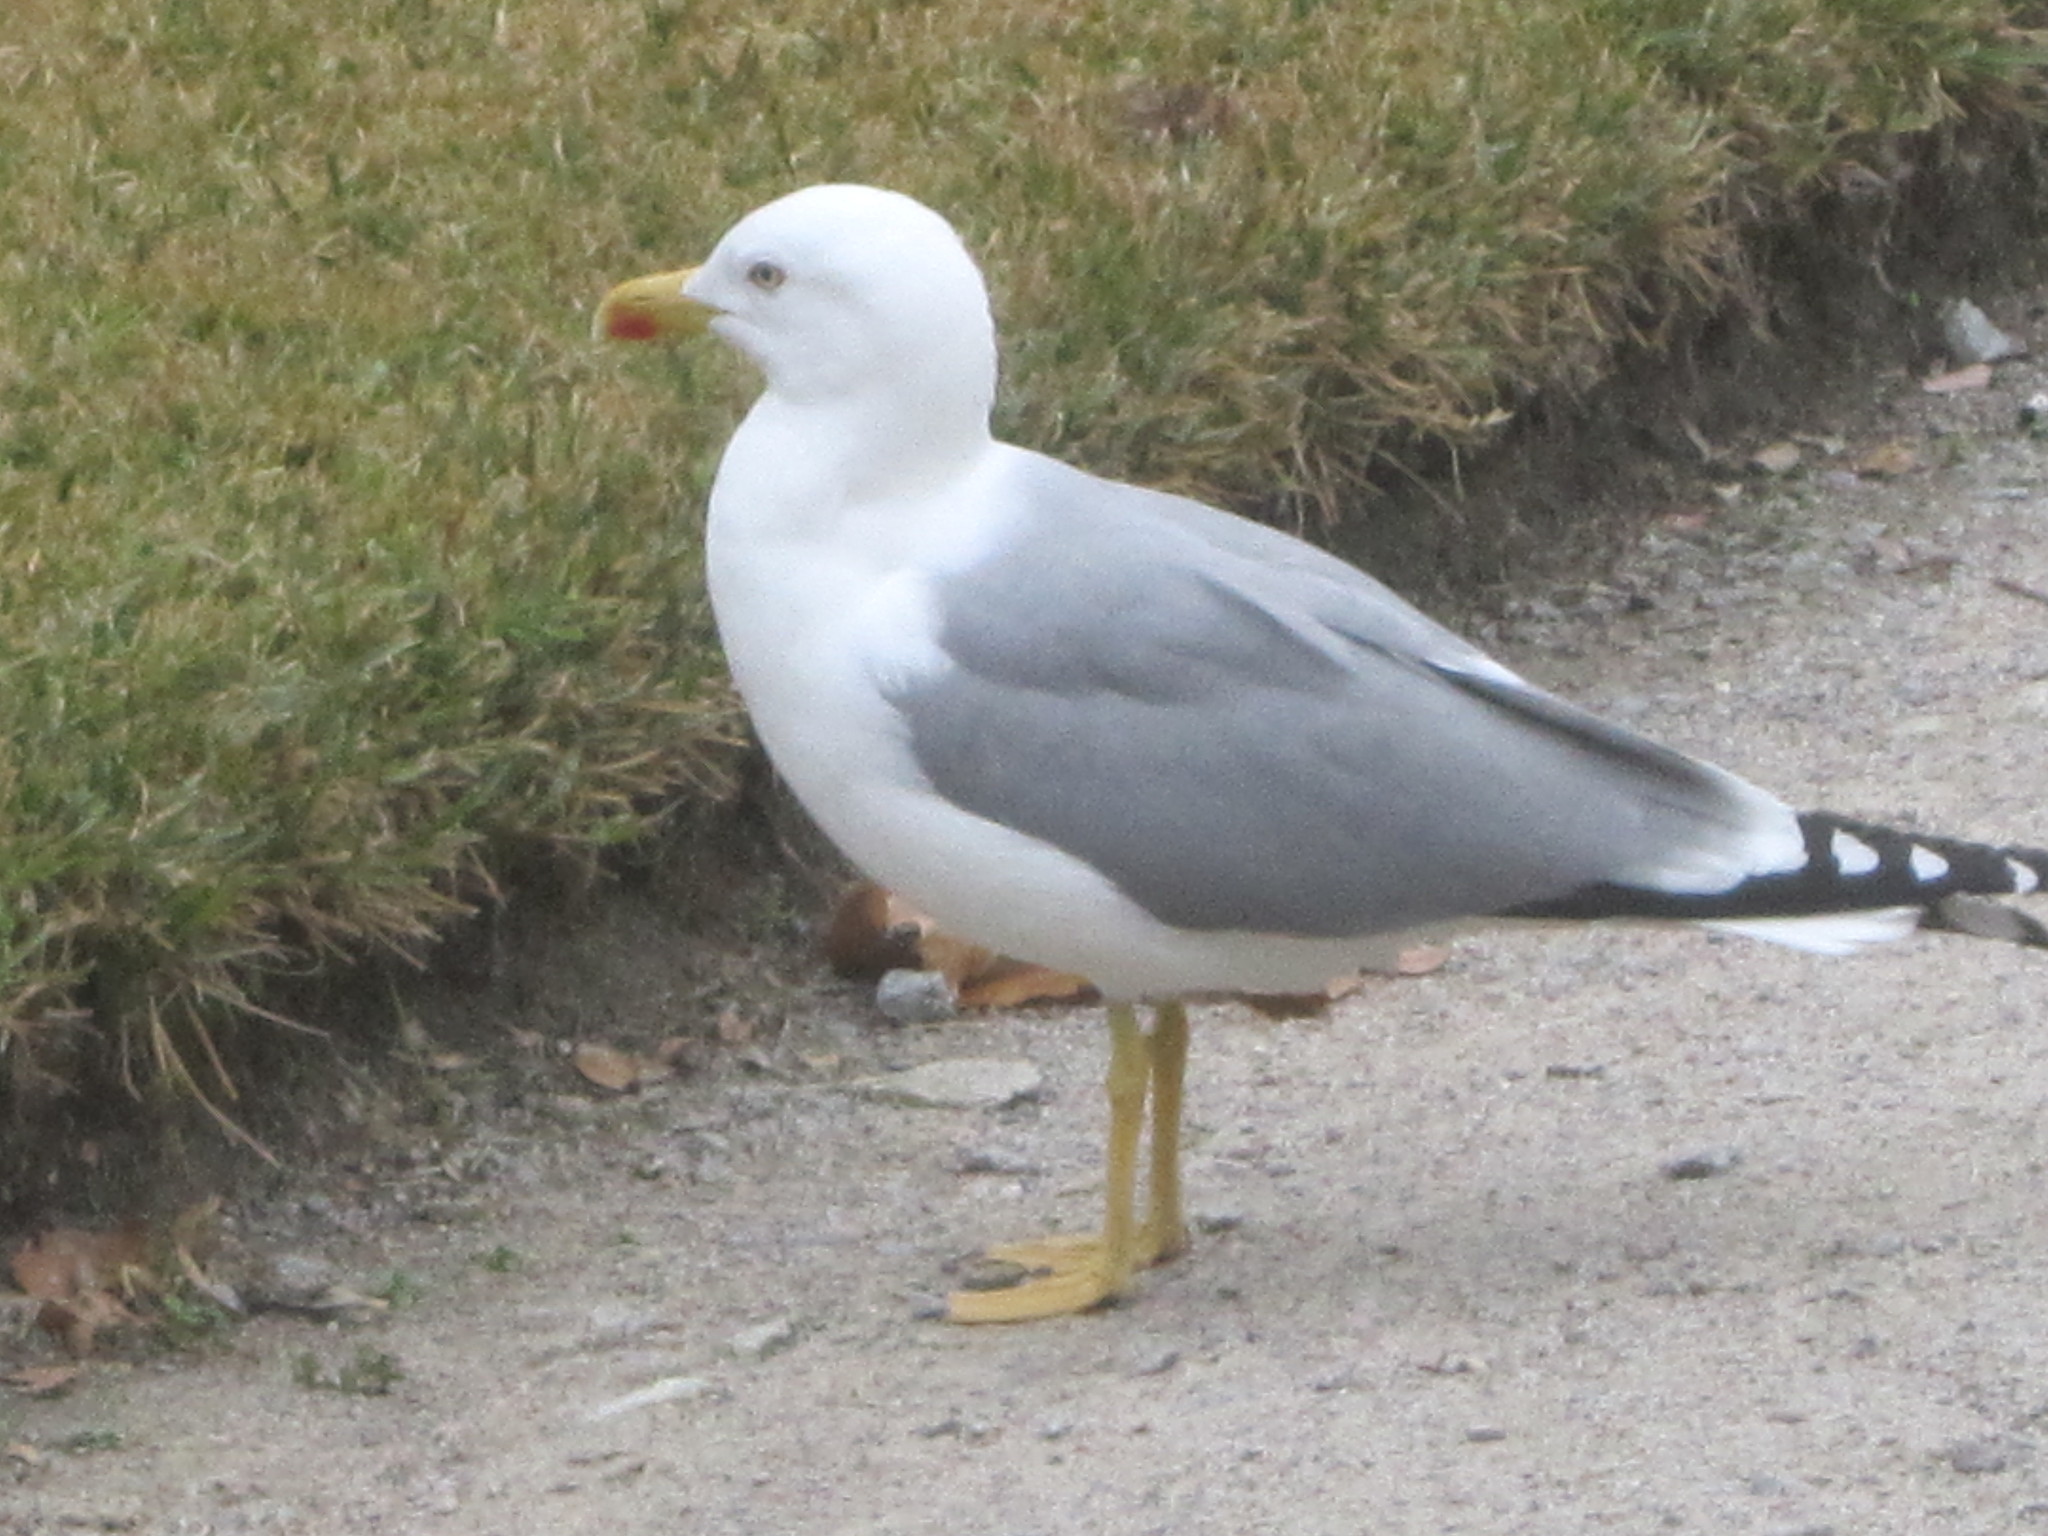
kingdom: Animalia
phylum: Chordata
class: Aves
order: Charadriiformes
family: Laridae
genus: Larus
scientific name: Larus michahellis
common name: Yellow-legged gull
